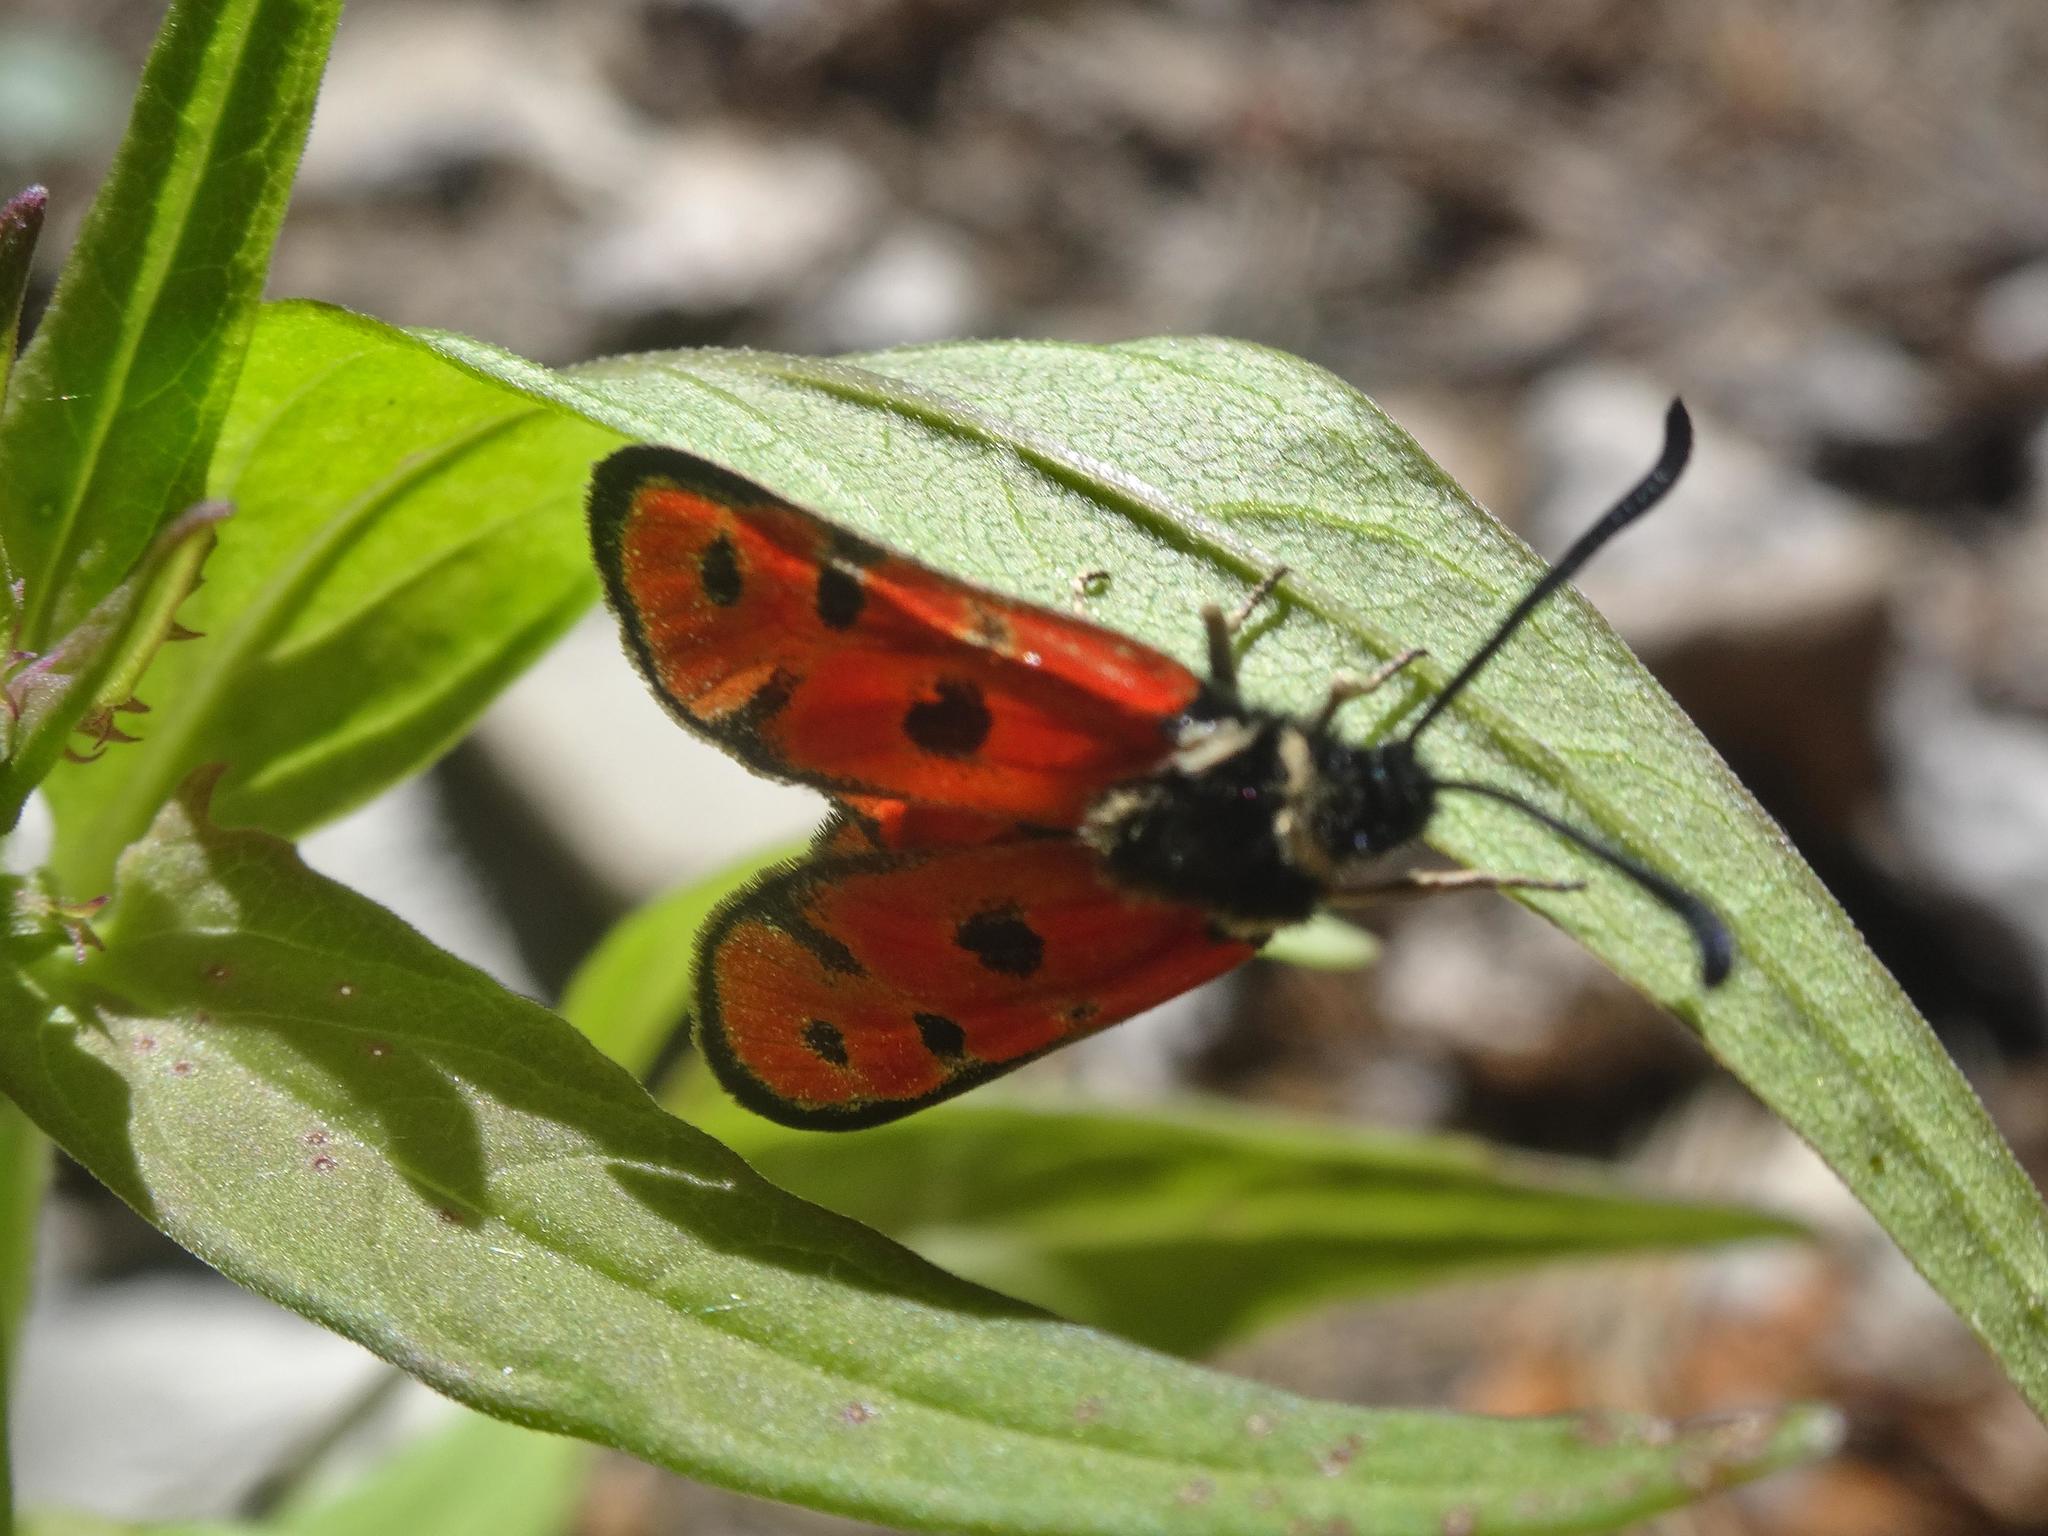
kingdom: Animalia
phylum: Arthropoda
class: Insecta
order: Lepidoptera
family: Zygaenidae
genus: Zygaena
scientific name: Zygaena hilaris
